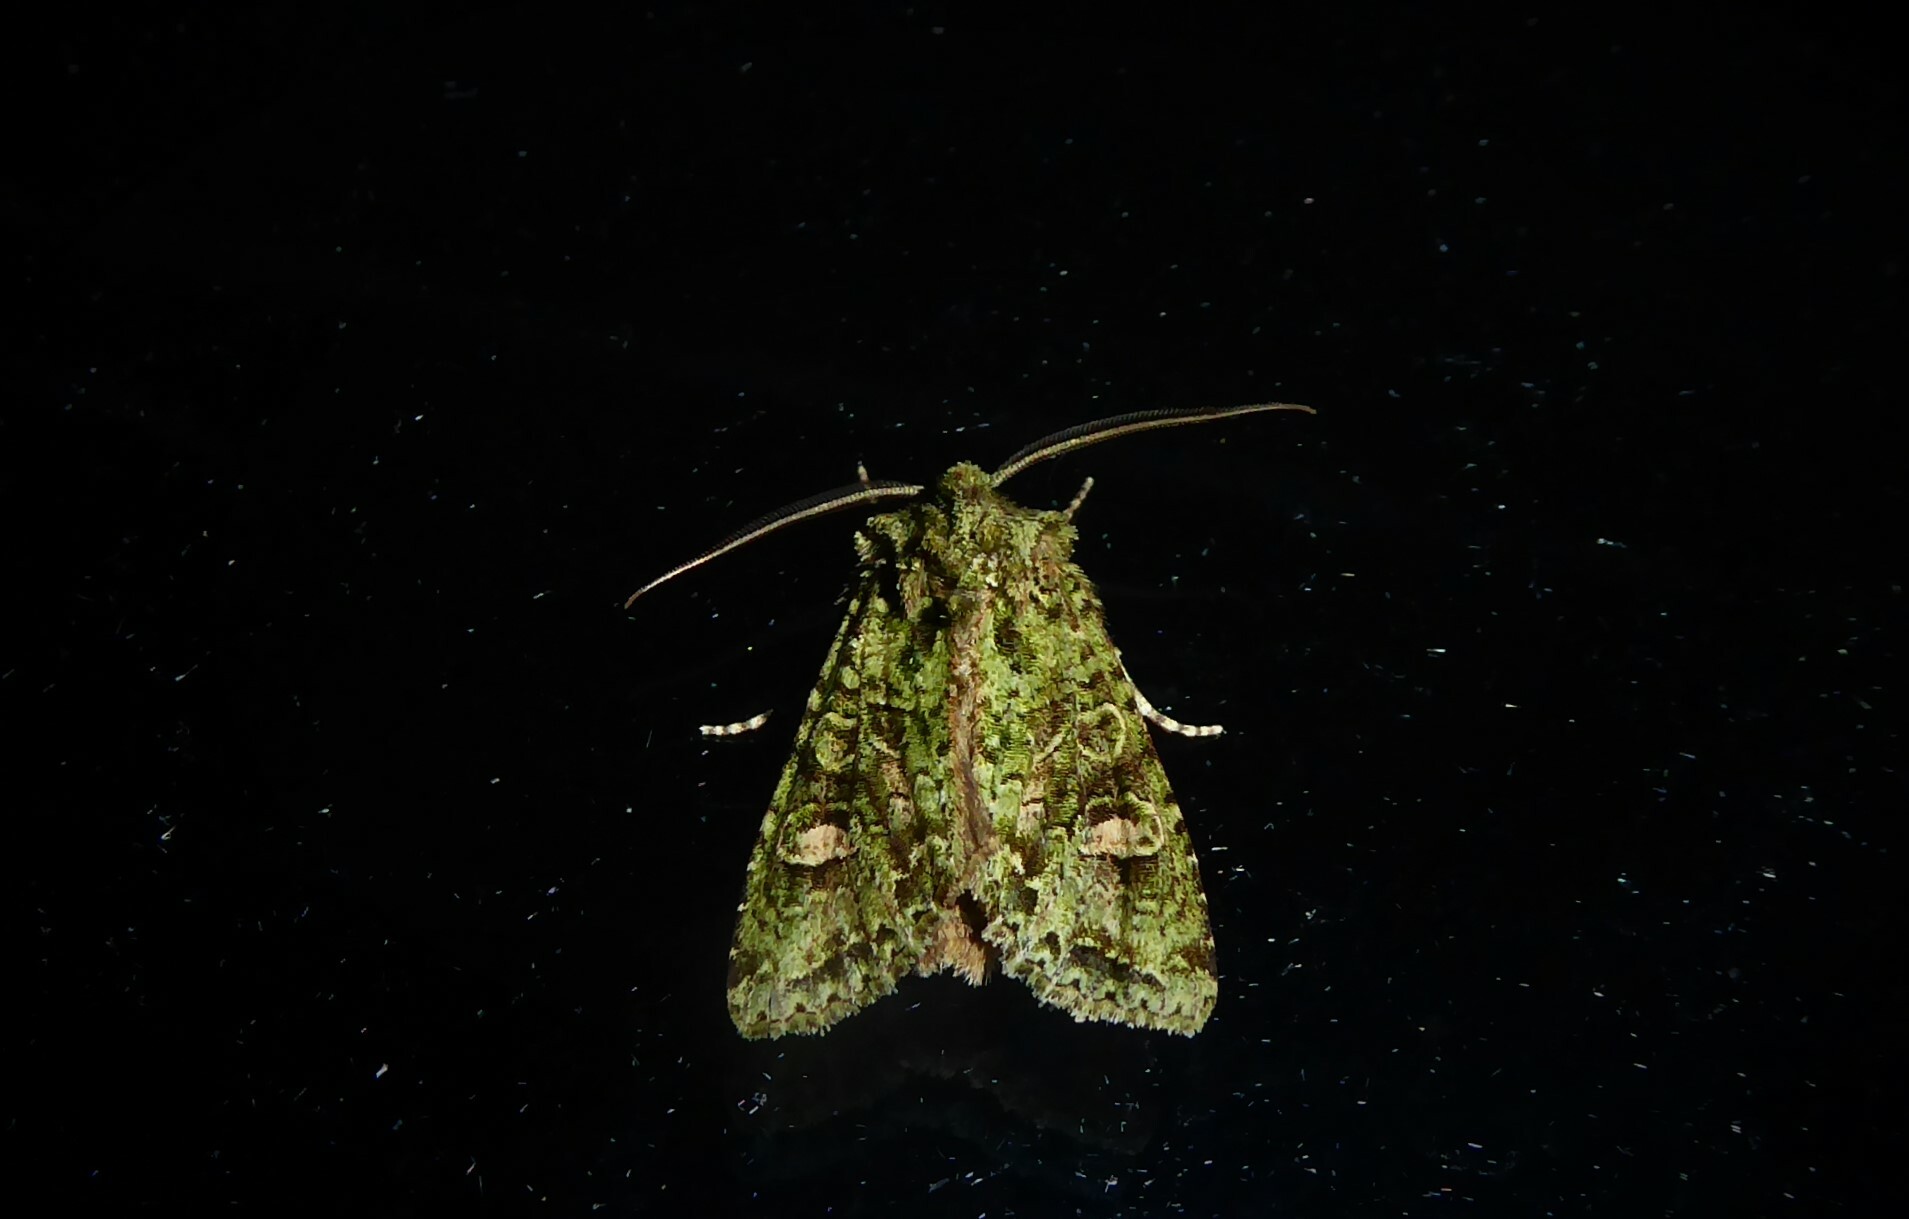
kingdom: Animalia
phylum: Arthropoda
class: Insecta
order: Lepidoptera
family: Noctuidae
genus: Ichneutica
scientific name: Ichneutica
